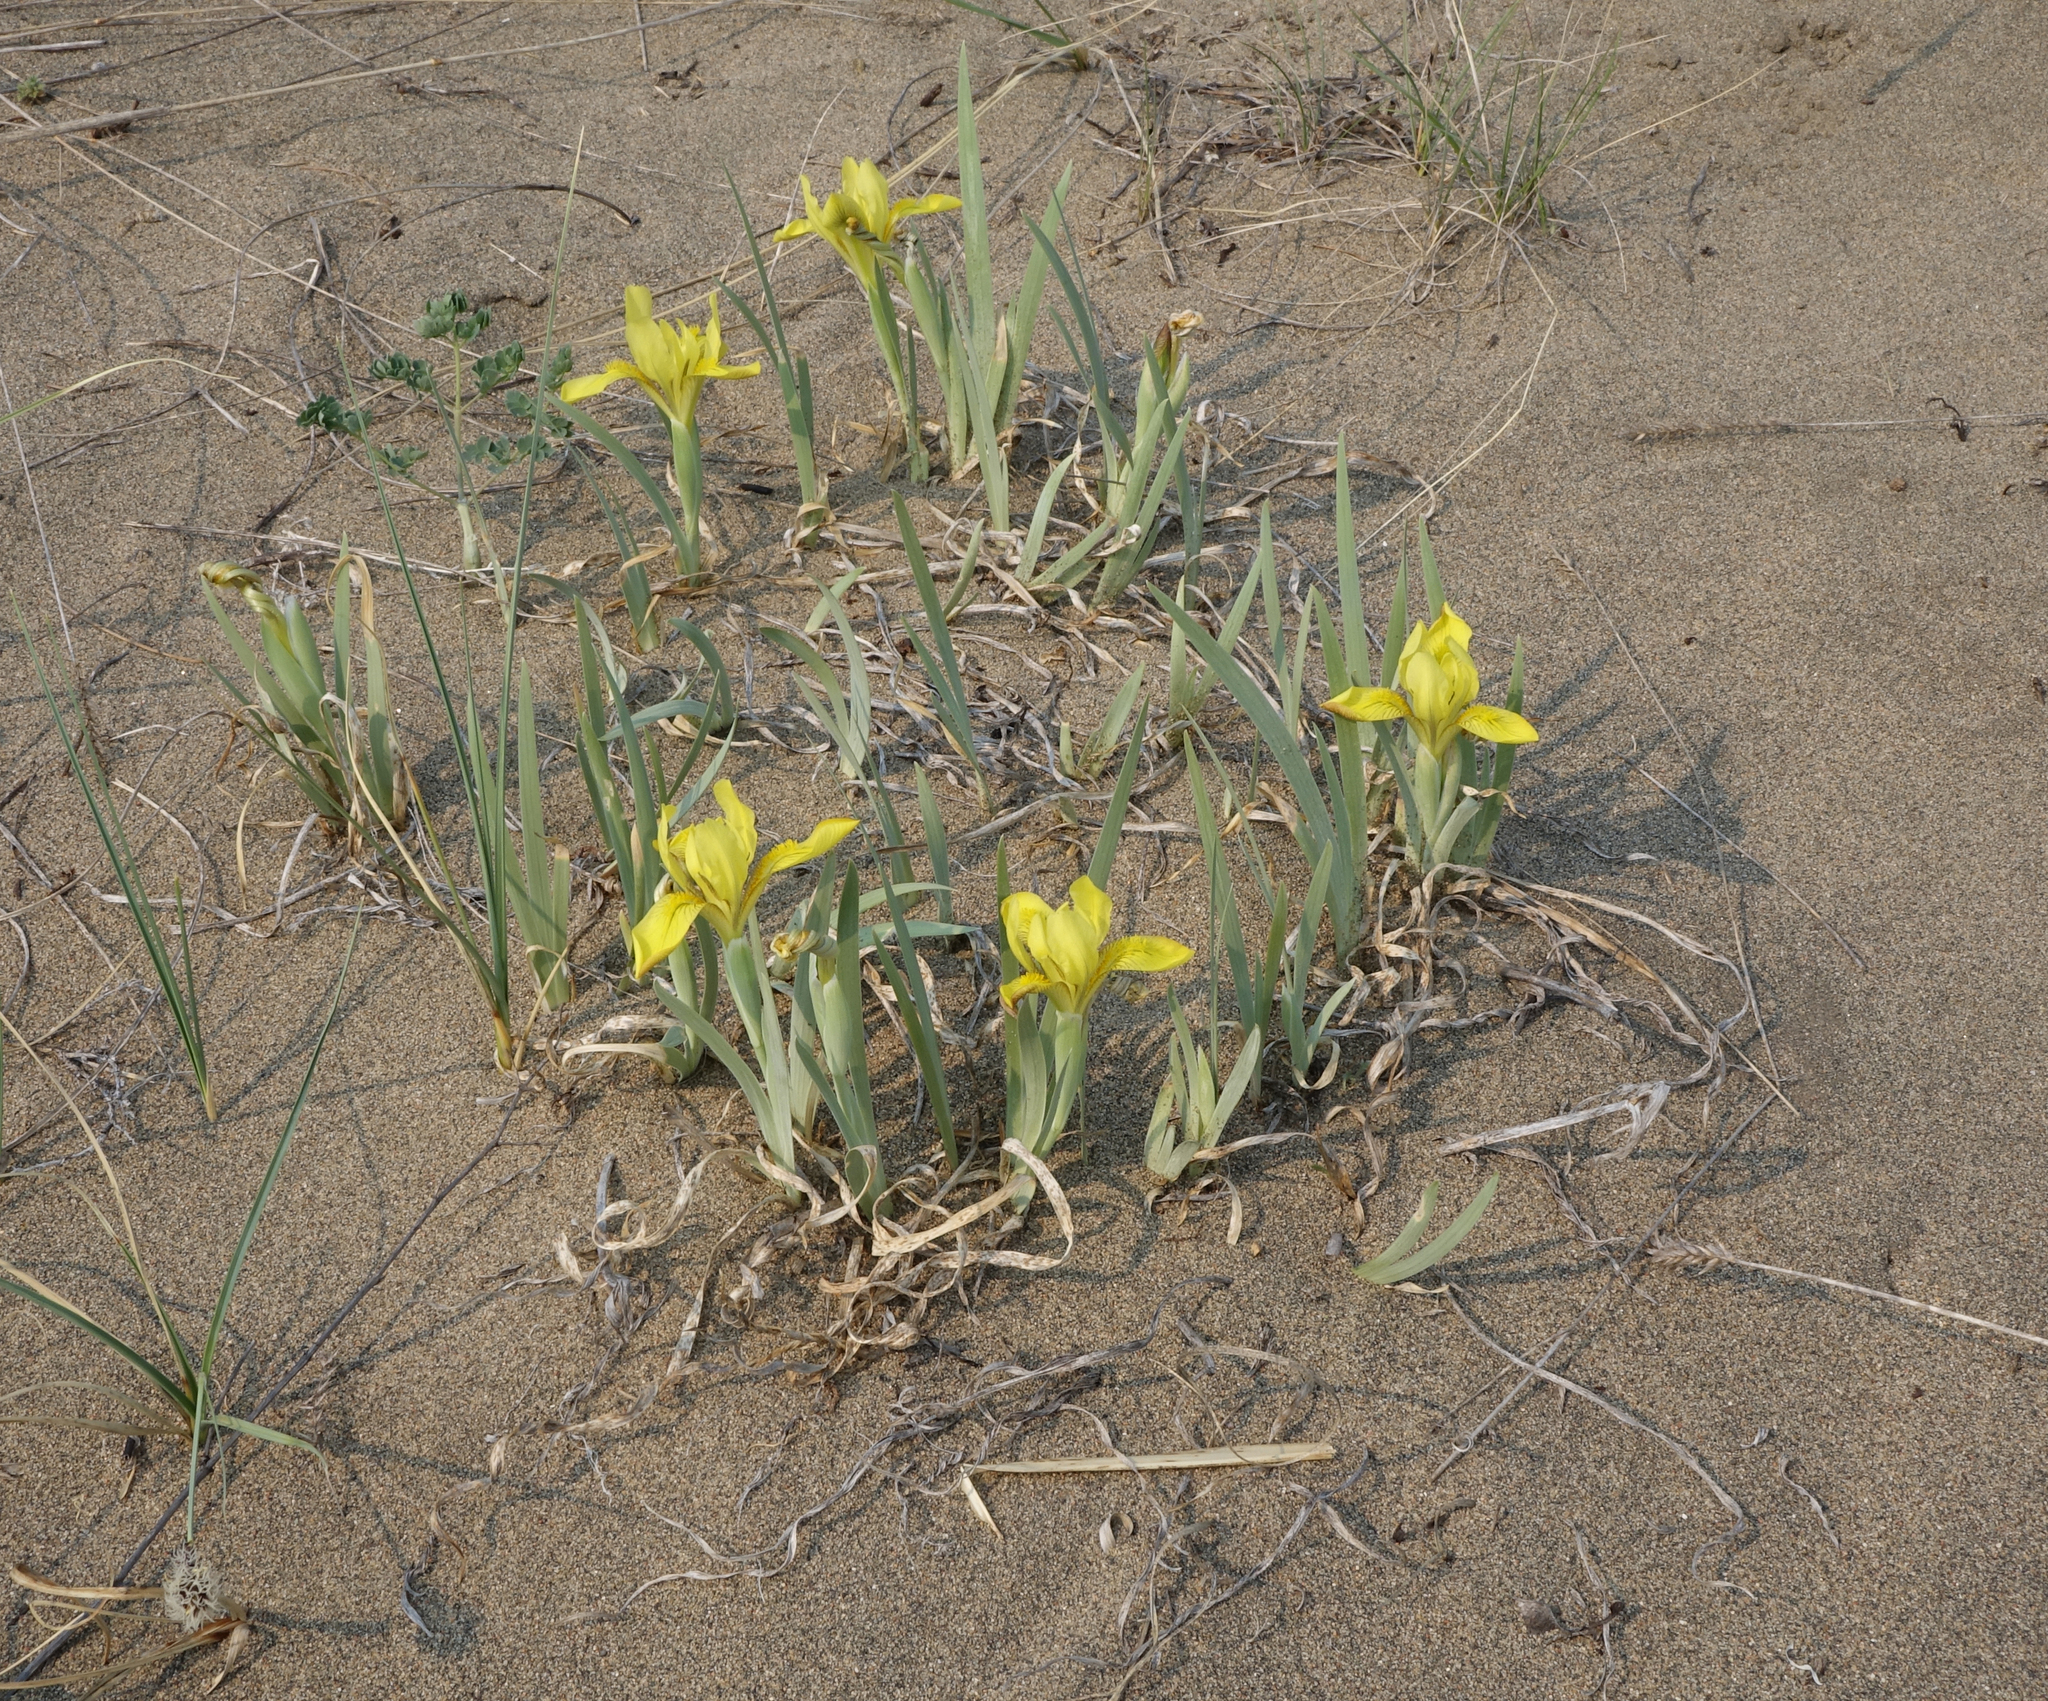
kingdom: Plantae
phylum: Tracheophyta
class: Liliopsida
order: Asparagales
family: Iridaceae
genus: Iris
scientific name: Iris humilis
